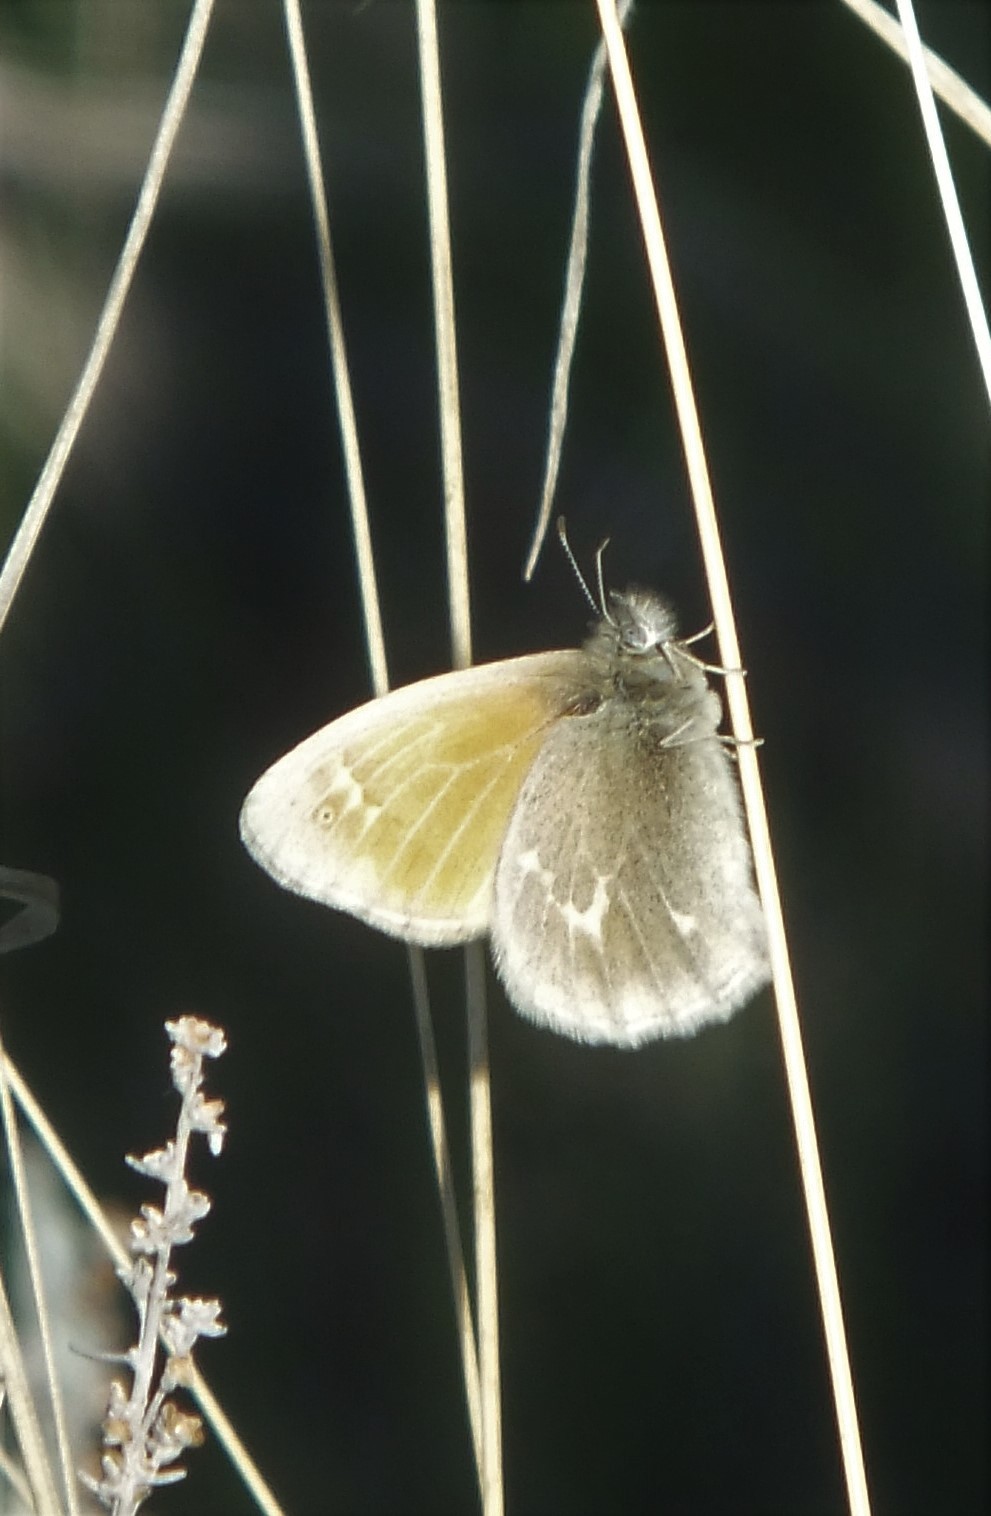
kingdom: Animalia
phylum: Arthropoda
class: Insecta
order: Lepidoptera
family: Nymphalidae
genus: Coenonympha
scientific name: Coenonympha california
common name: Common ringlet
